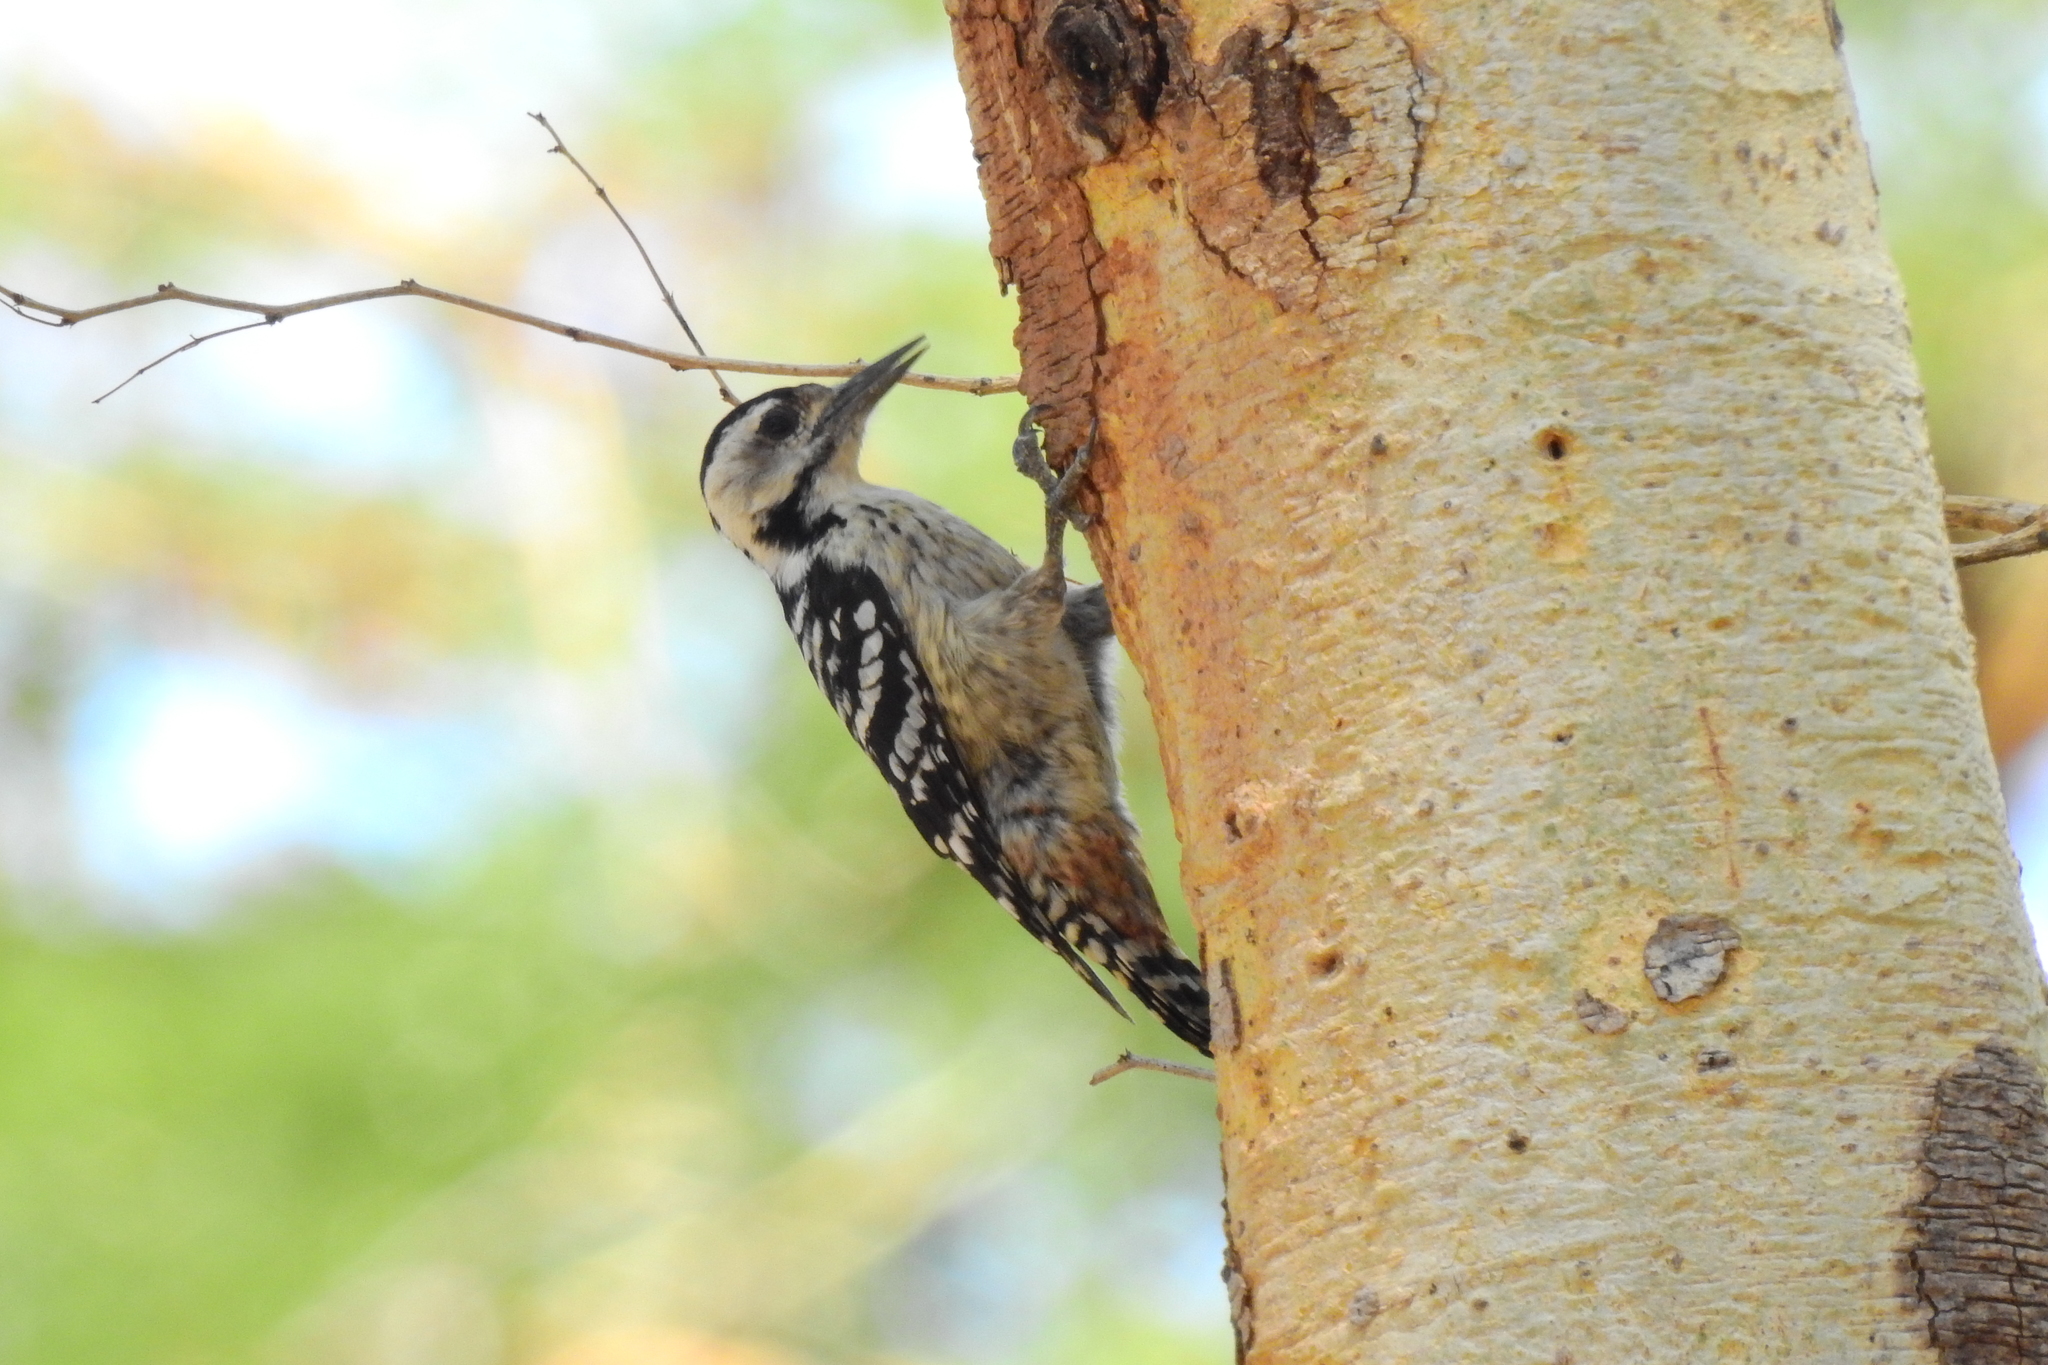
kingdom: Animalia
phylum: Chordata
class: Aves
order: Piciformes
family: Picidae
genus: Dendrocopos
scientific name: Dendrocopos analis
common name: Freckle-breasted woodpecker
